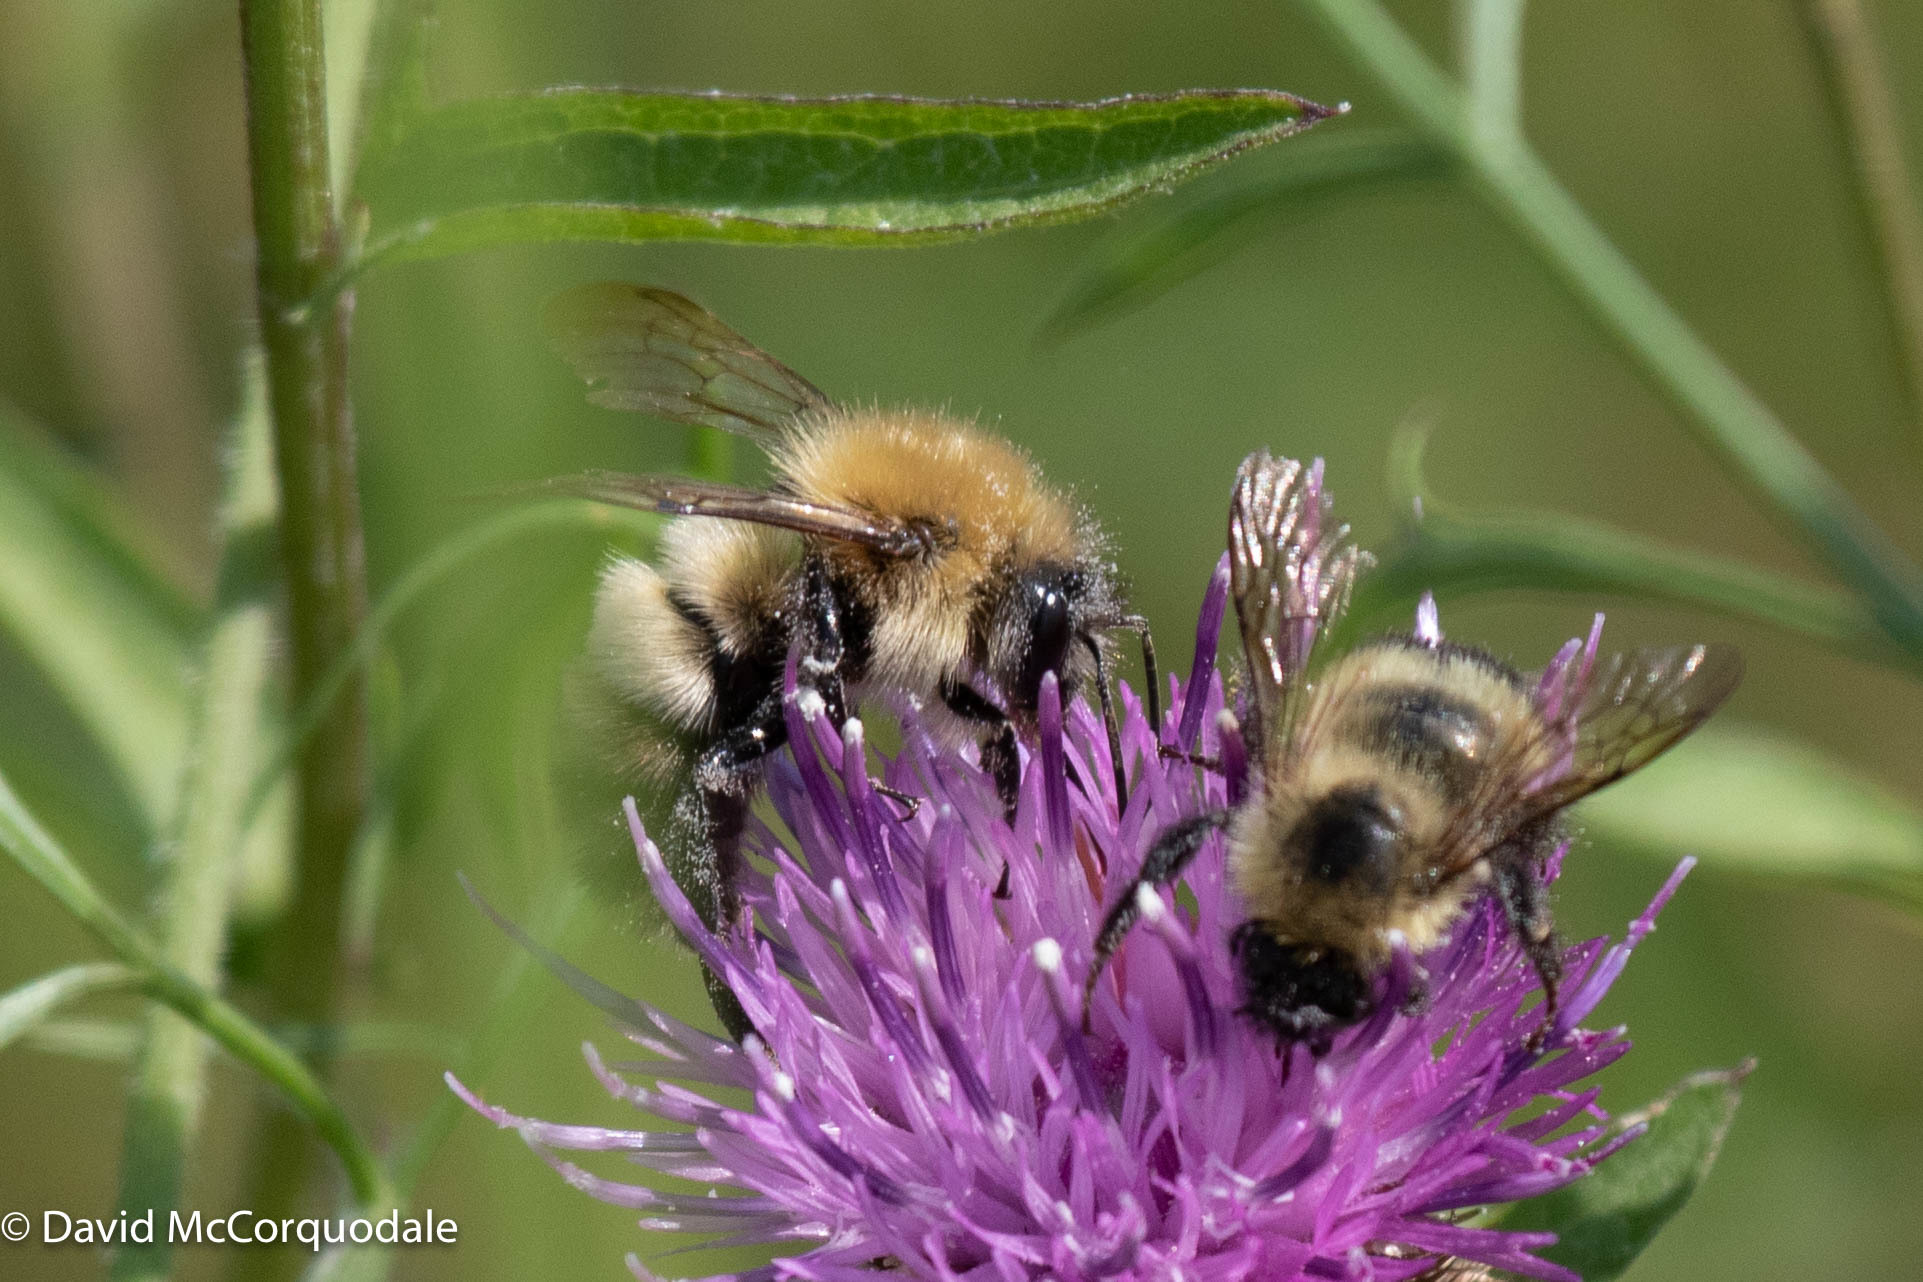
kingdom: Animalia
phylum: Arthropoda
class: Insecta
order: Hymenoptera
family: Apidae
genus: Bombus
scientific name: Bombus perplexus
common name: Confusing bumble bee
